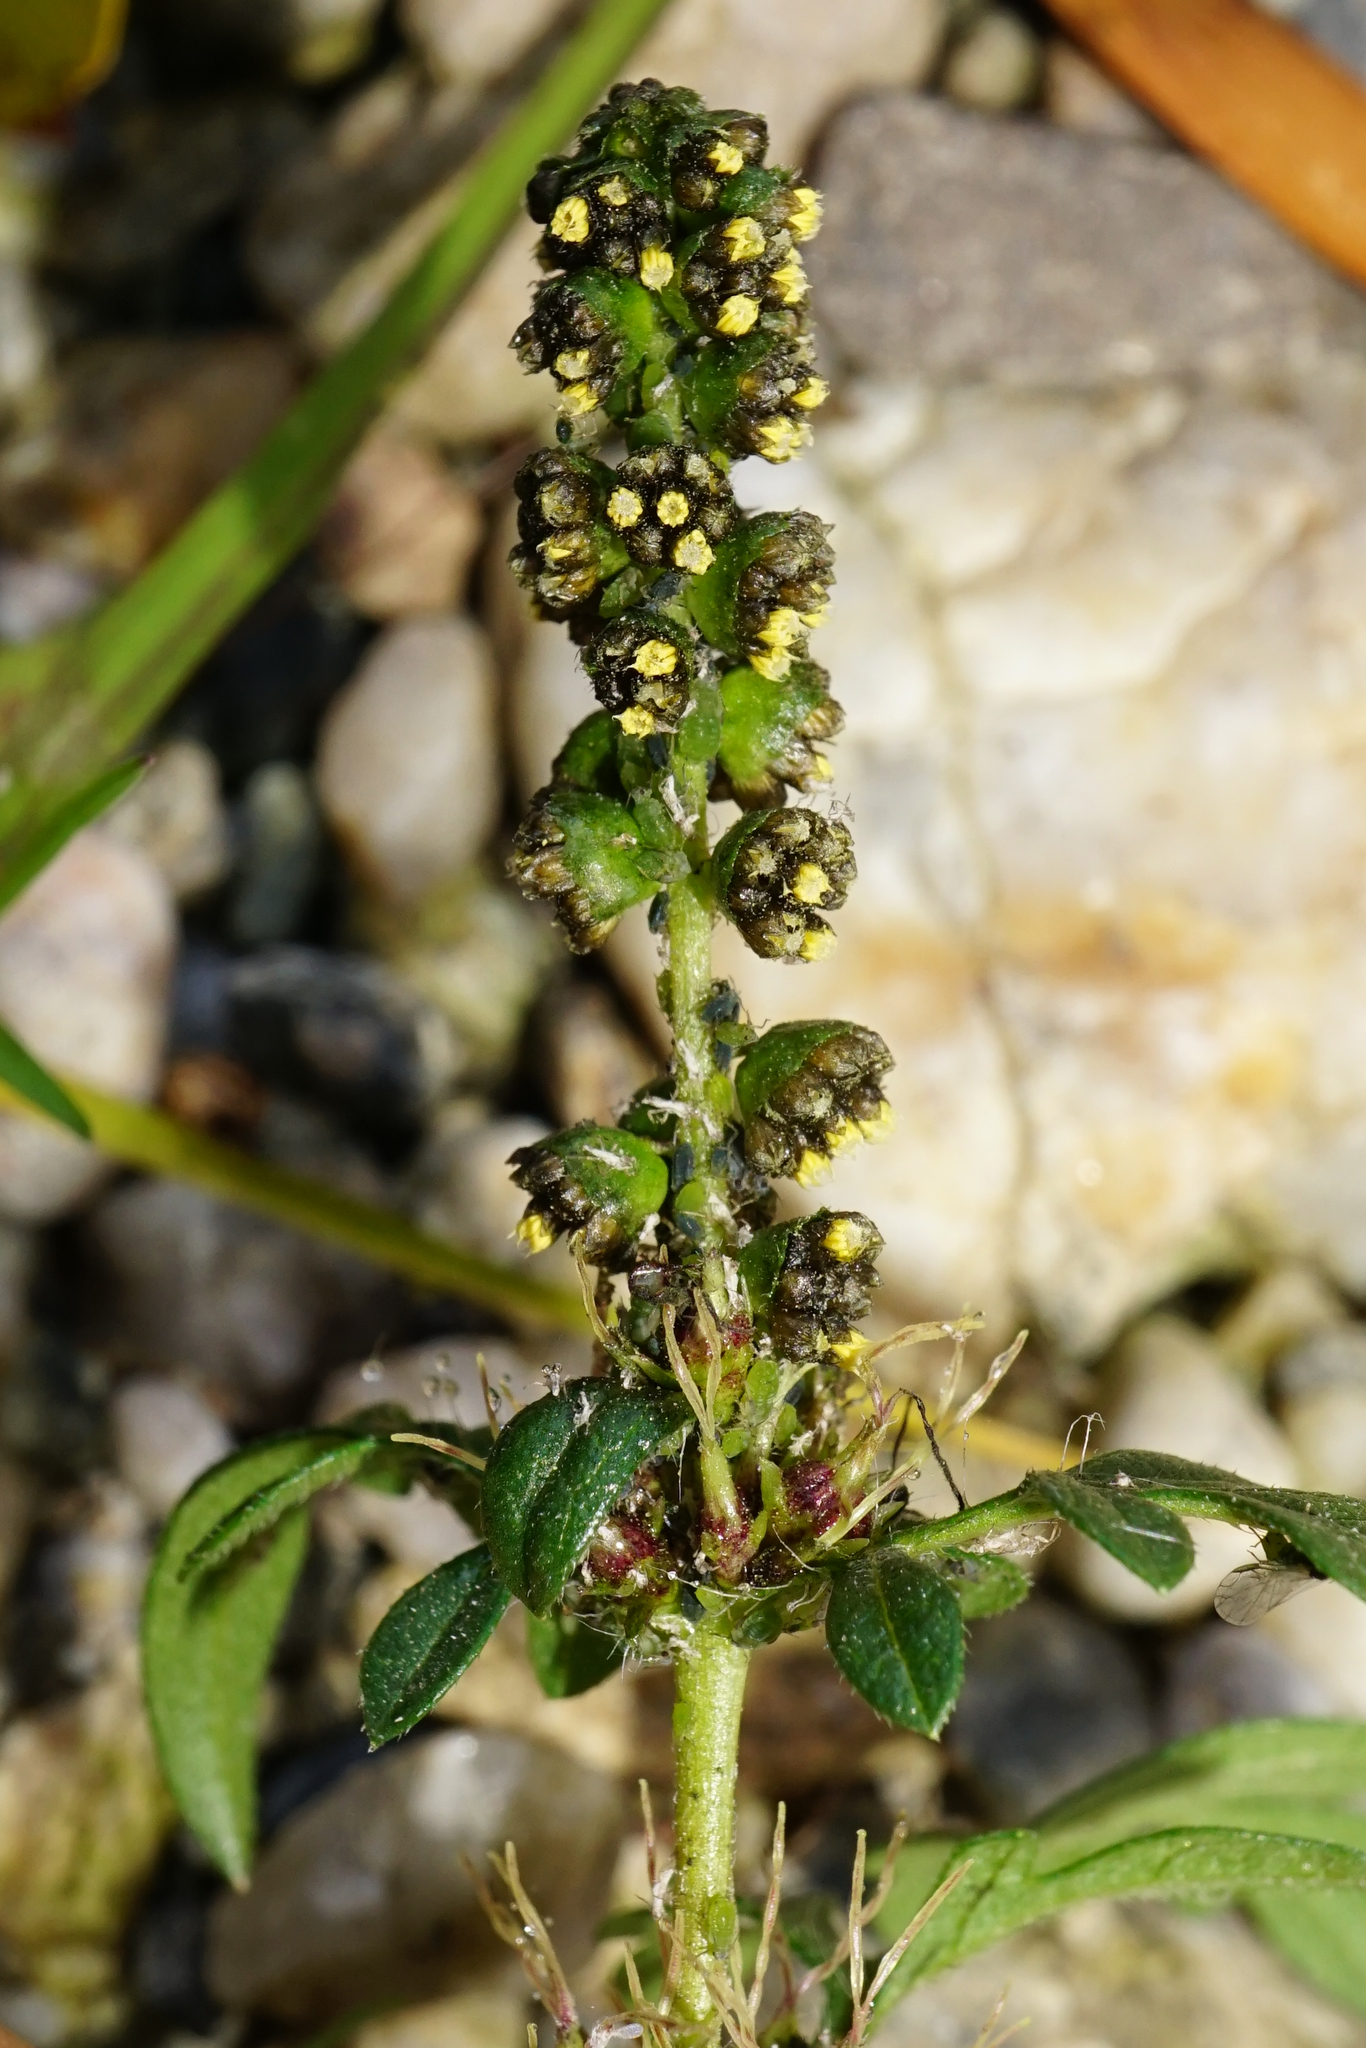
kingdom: Plantae
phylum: Tracheophyta
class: Magnoliopsida
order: Asterales
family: Asteraceae
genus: Ambrosia
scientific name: Ambrosia artemisiifolia
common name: Annual ragweed
